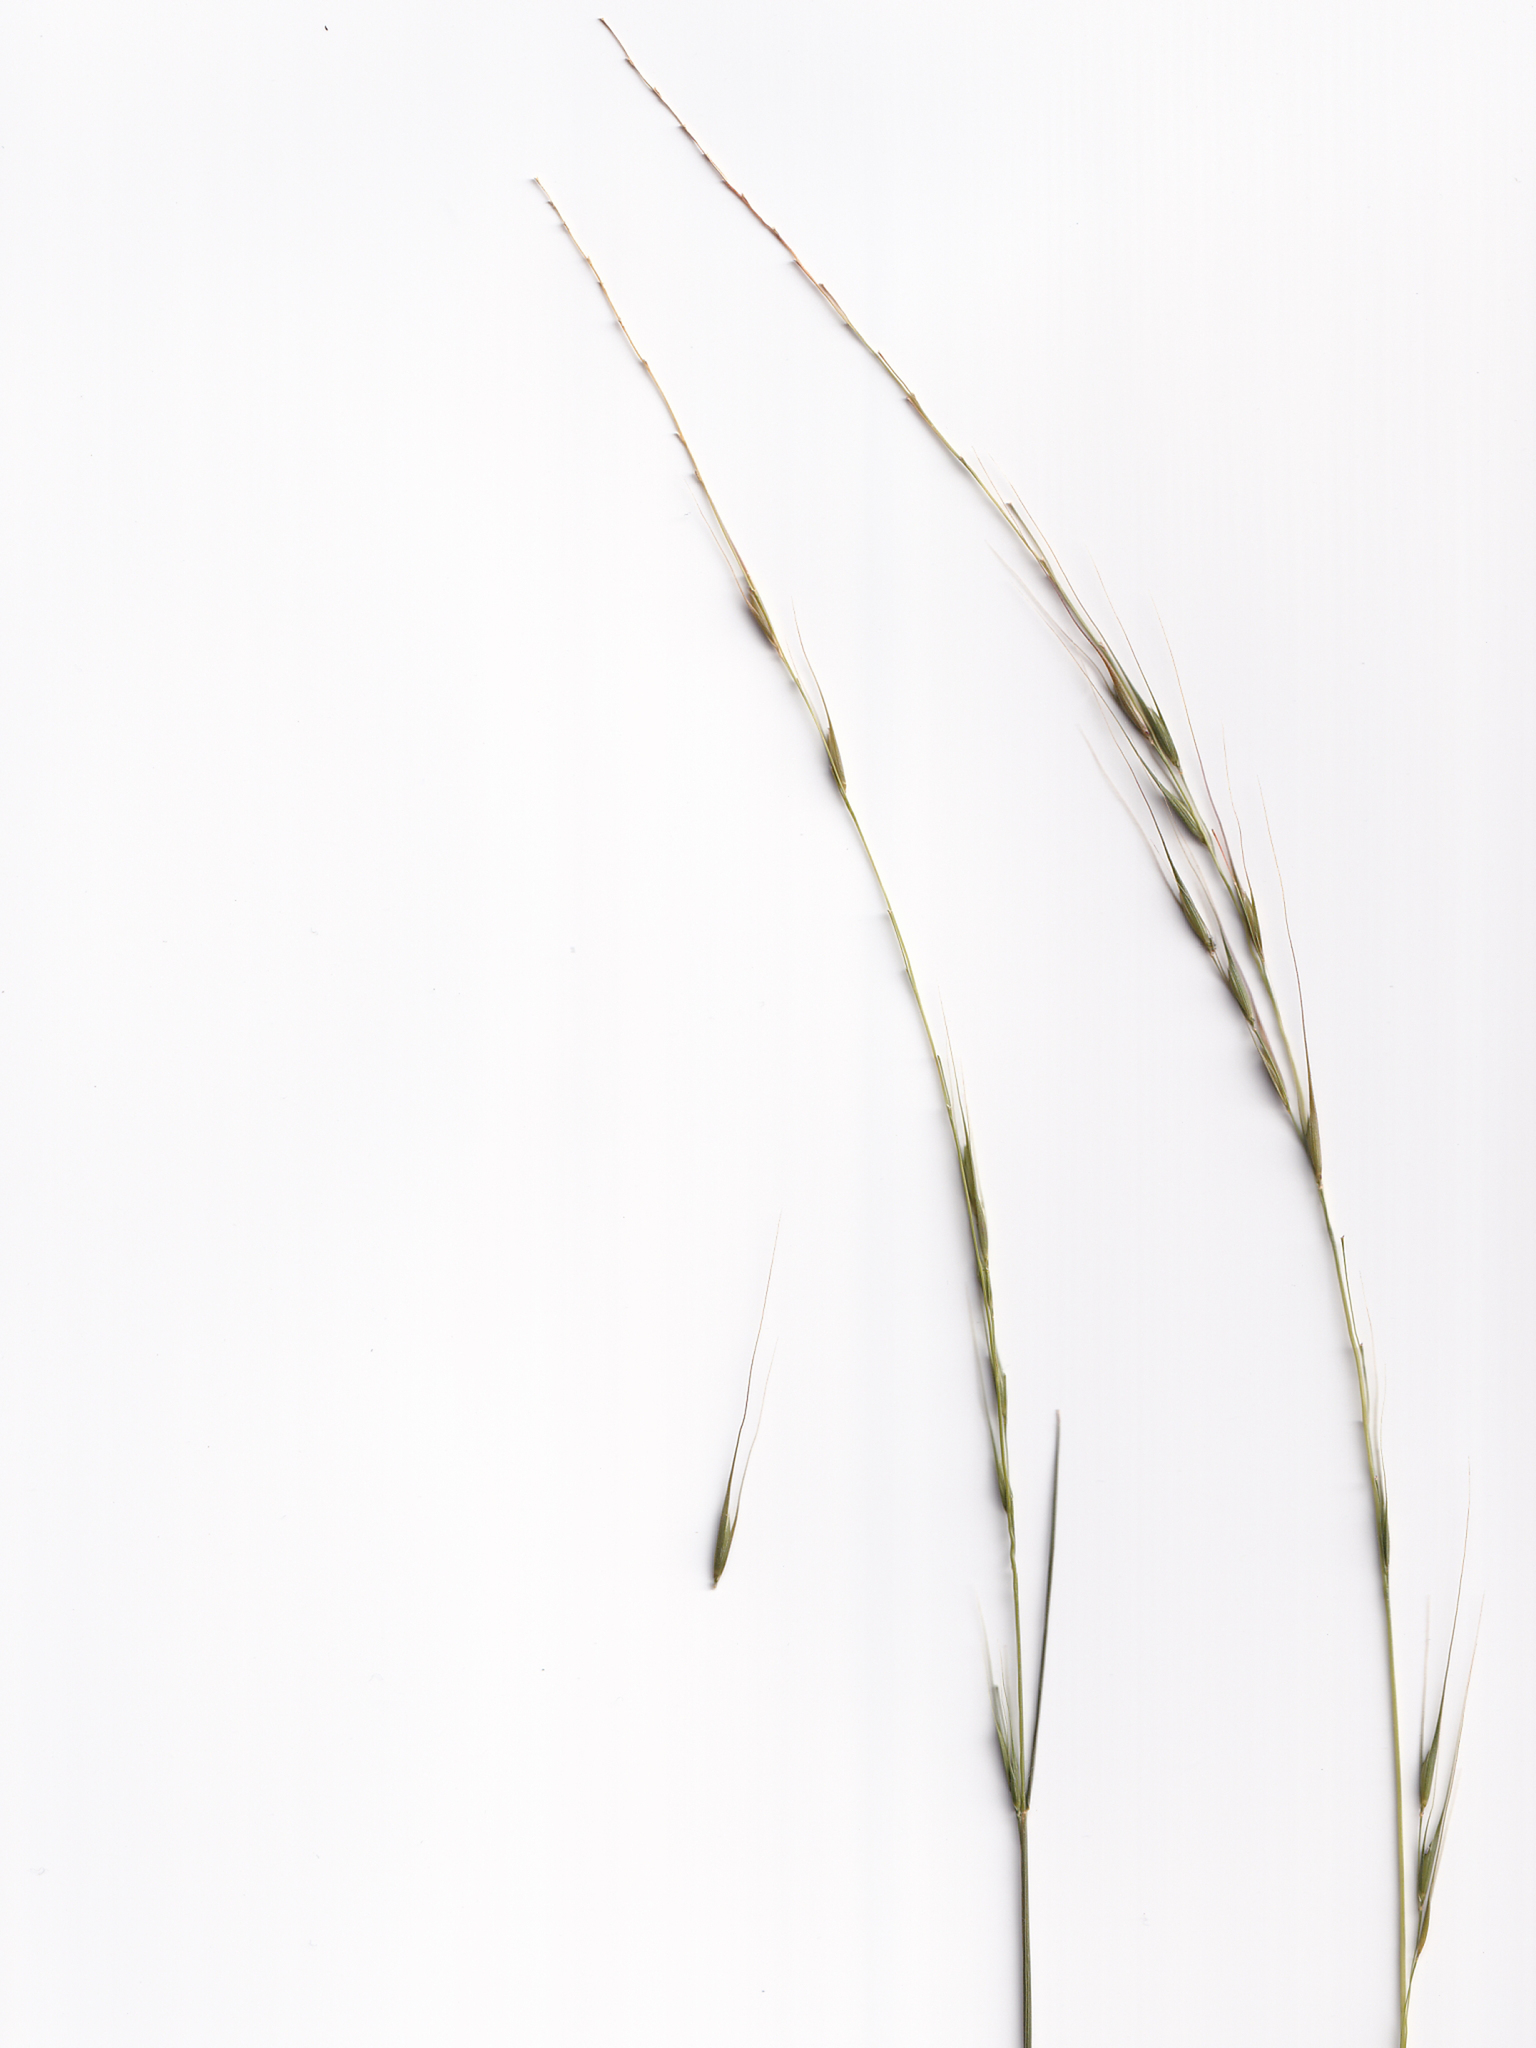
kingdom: Plantae
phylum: Tracheophyta
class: Liliopsida
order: Poales
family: Poaceae
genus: Microlaena
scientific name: Microlaena stipoides
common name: Meadow ricegrass
